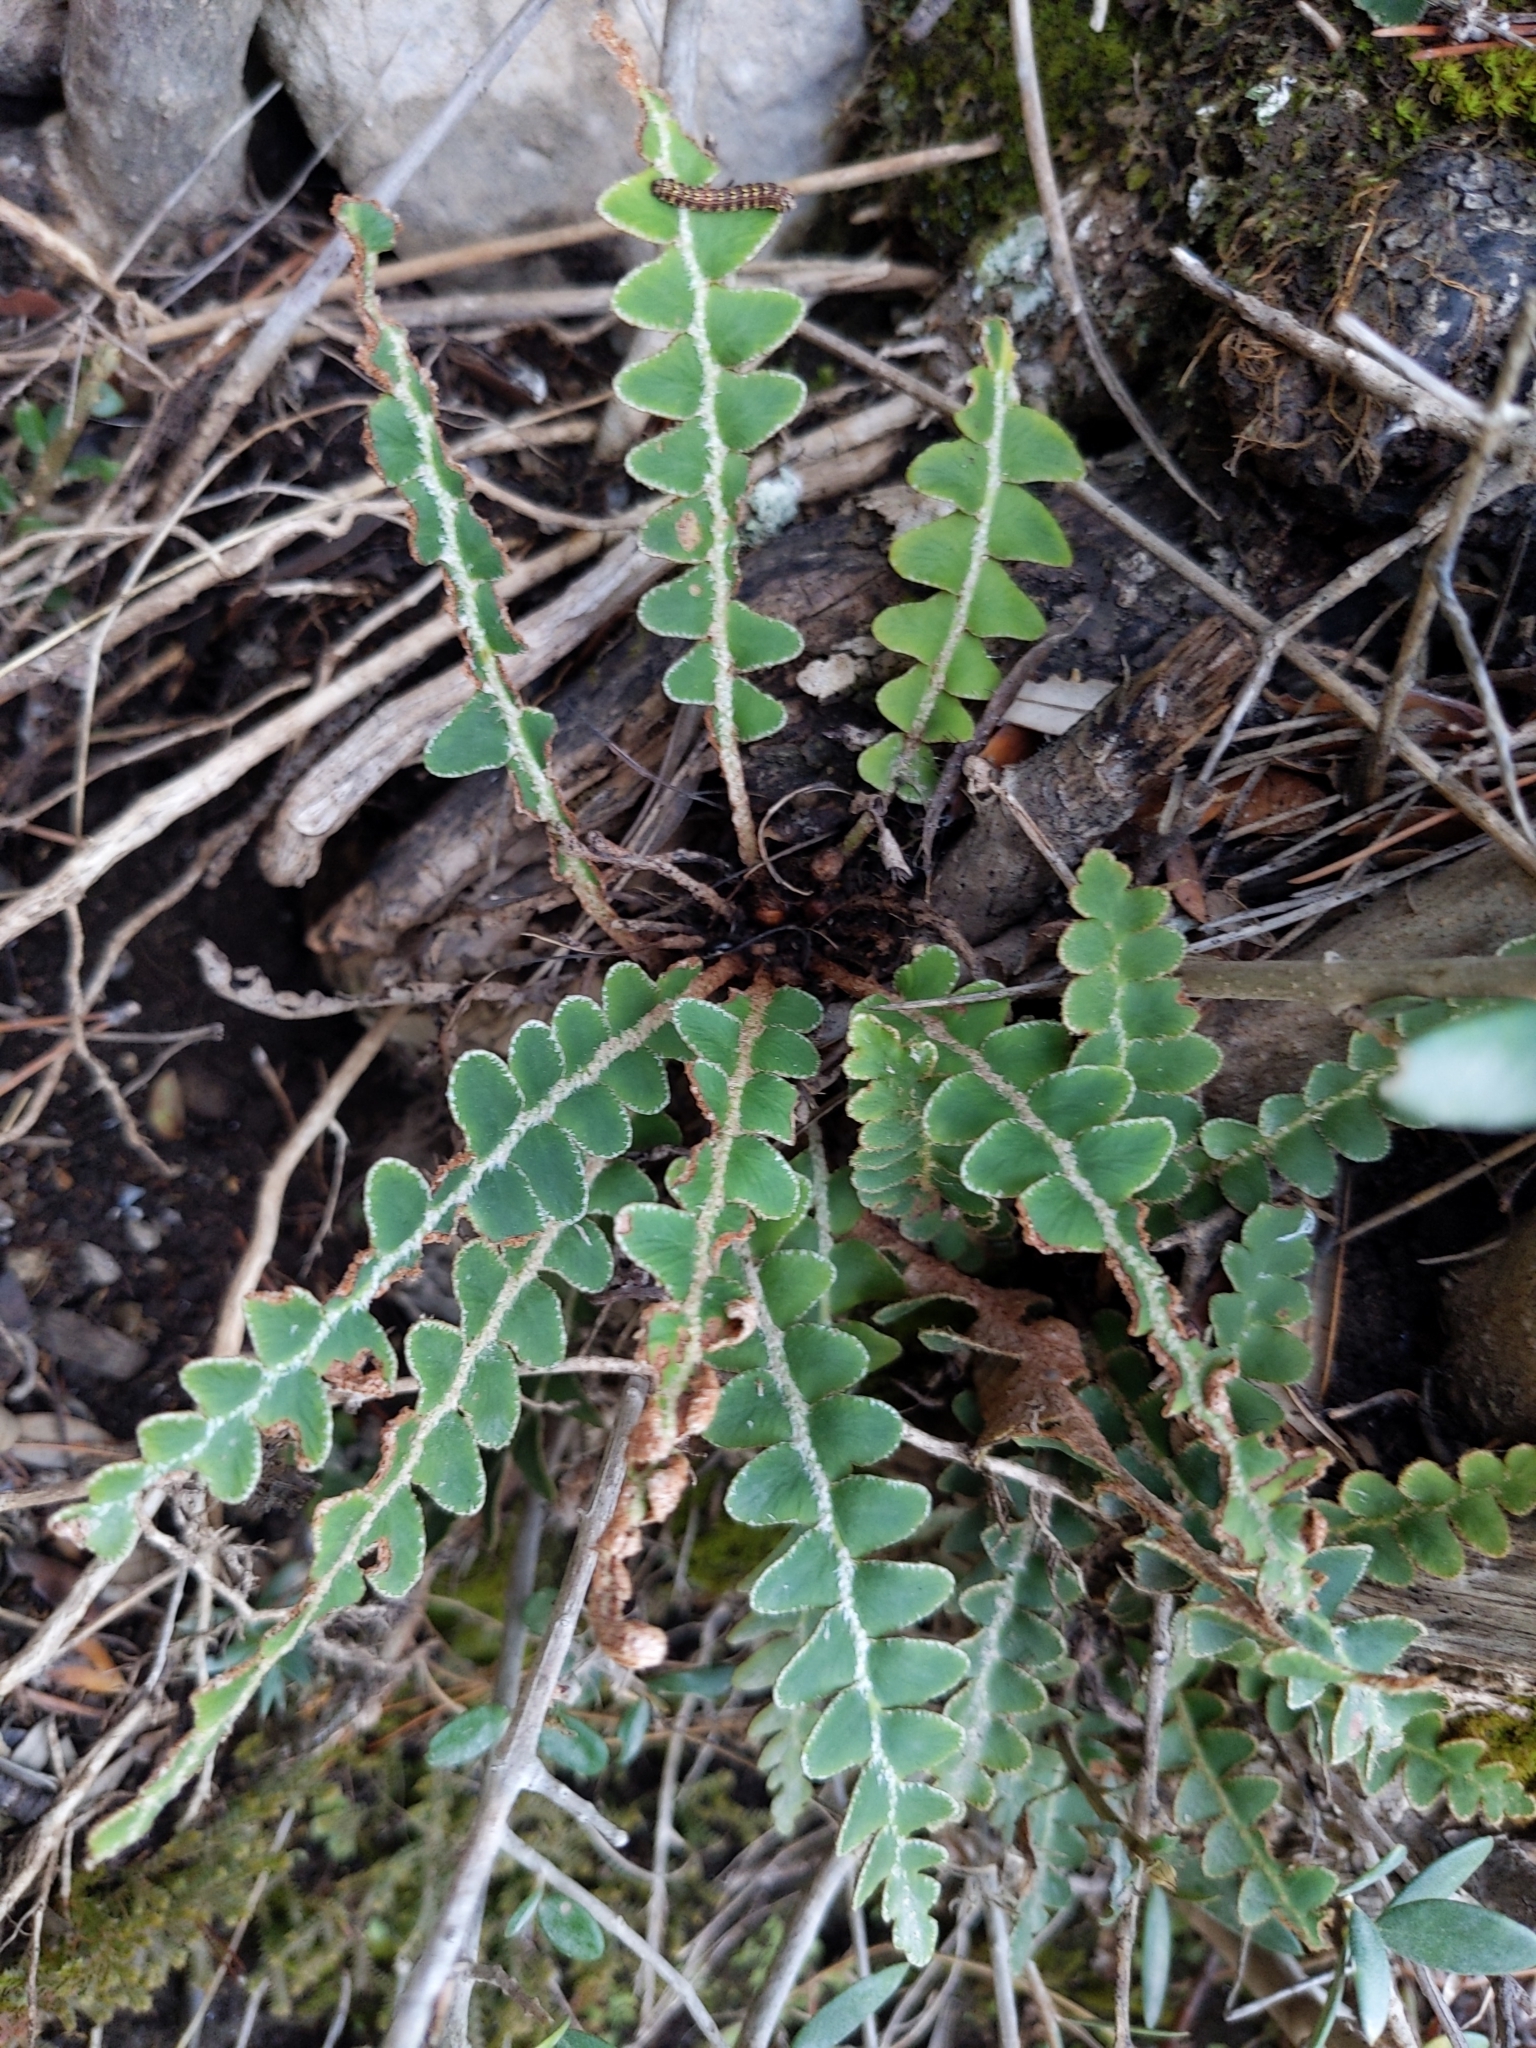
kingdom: Plantae
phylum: Tracheophyta
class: Polypodiopsida
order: Polypodiales
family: Aspleniaceae
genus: Asplenium
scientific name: Asplenium ceterach
